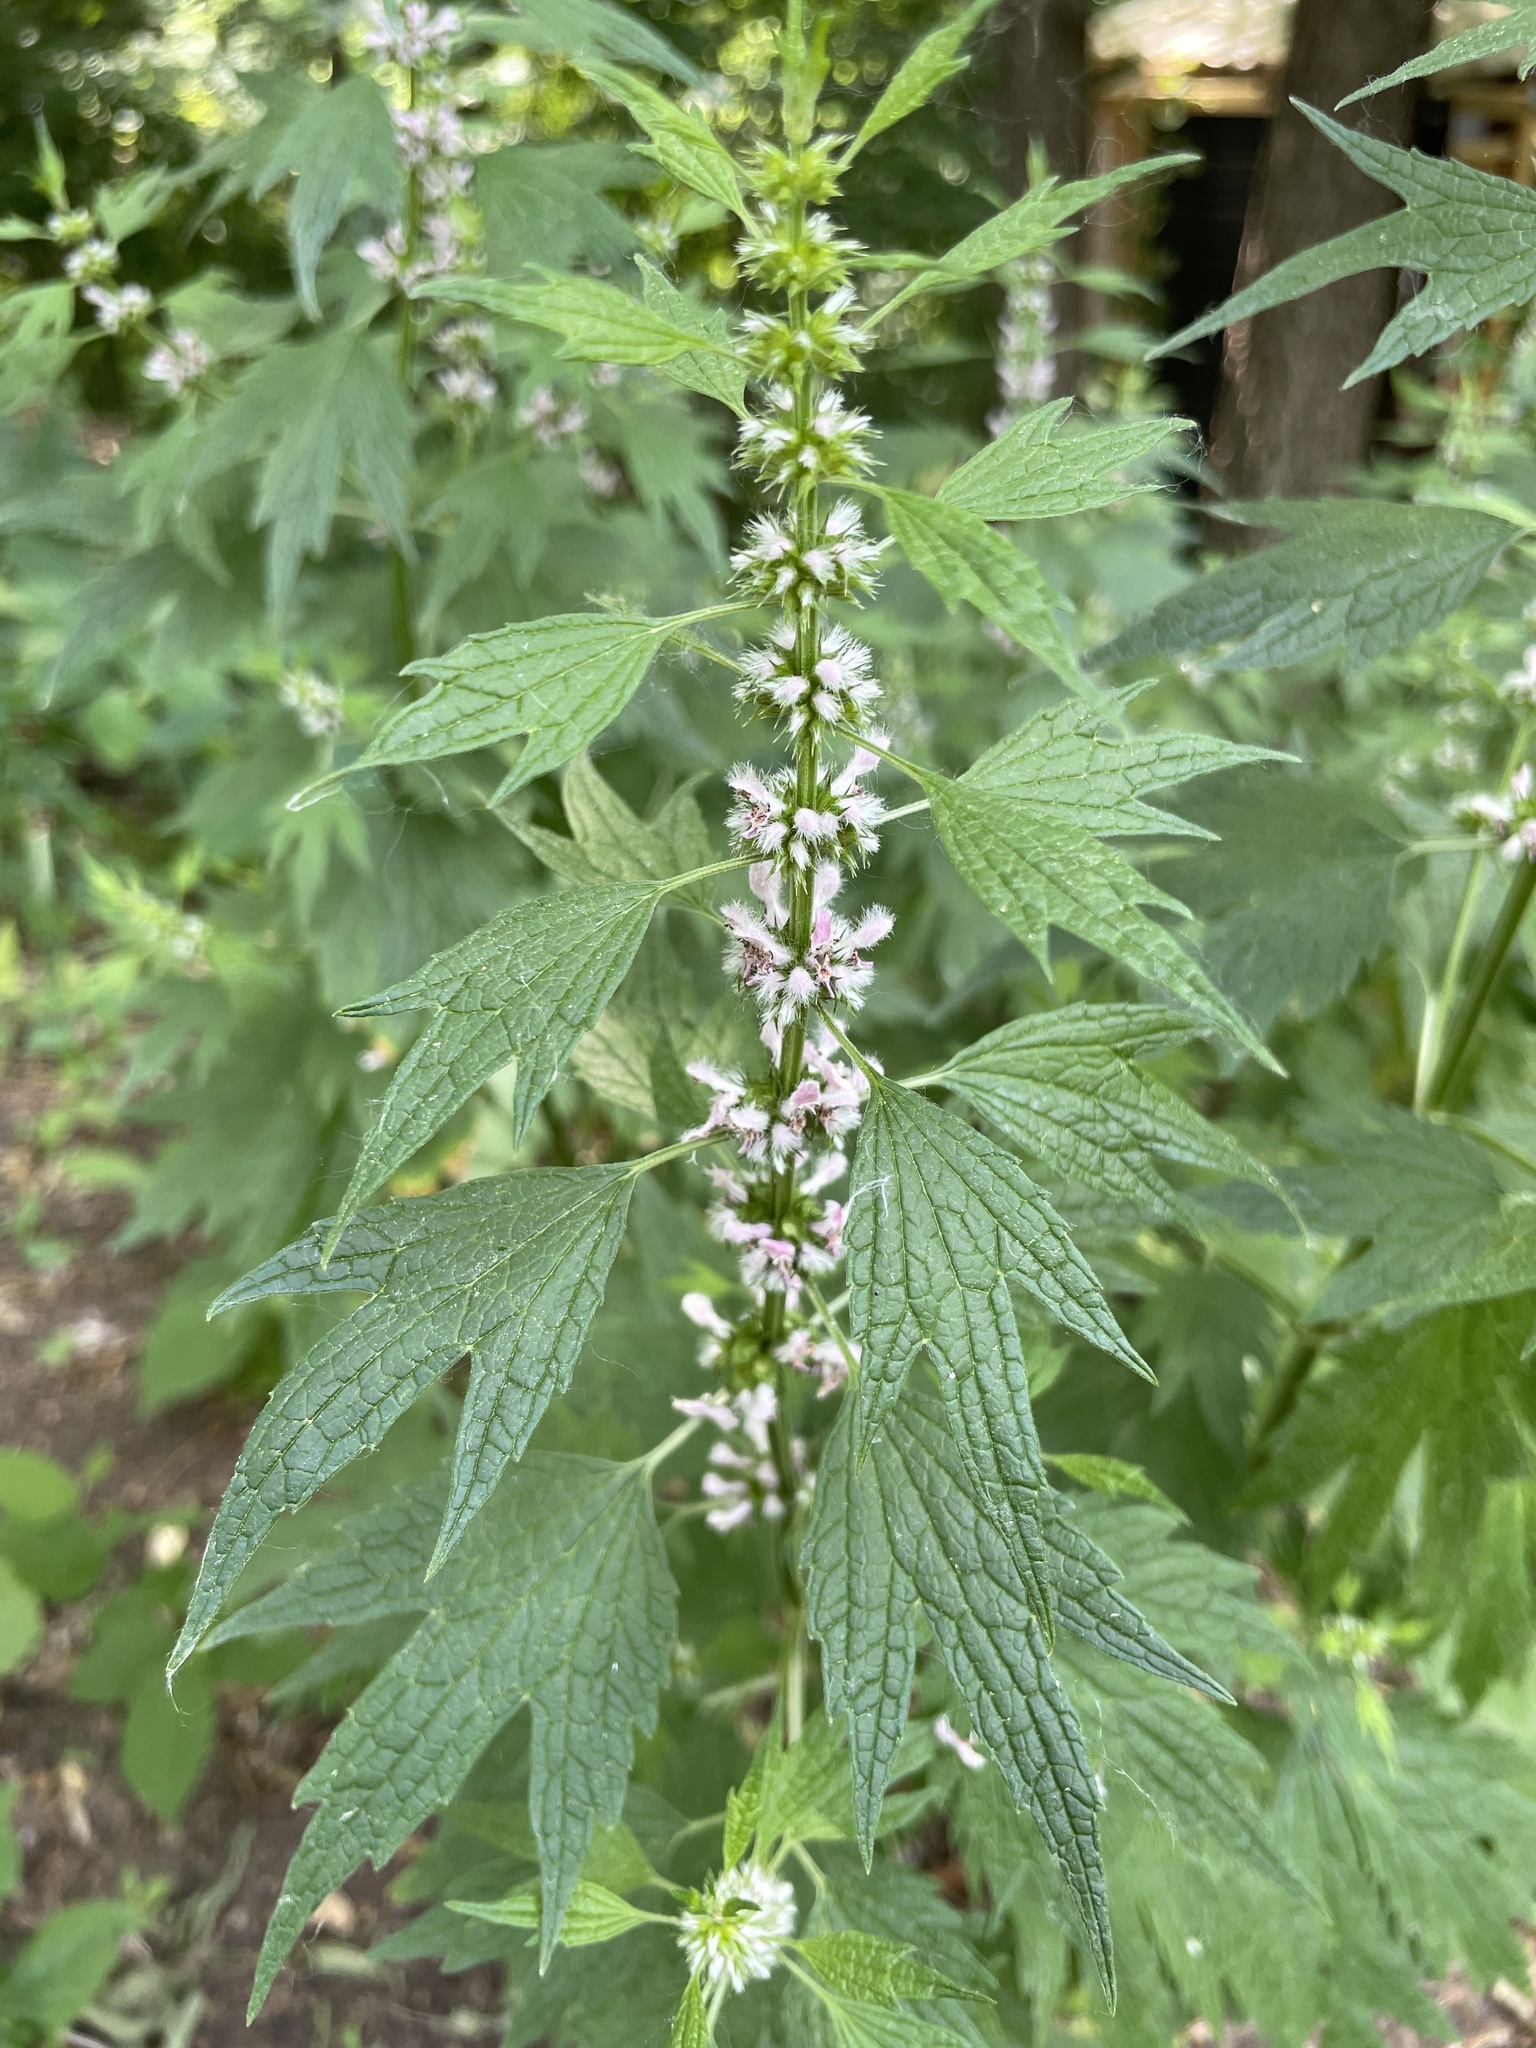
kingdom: Plantae
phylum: Tracheophyta
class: Magnoliopsida
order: Lamiales
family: Lamiaceae
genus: Leonurus
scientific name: Leonurus cardiaca
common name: Motherwort
